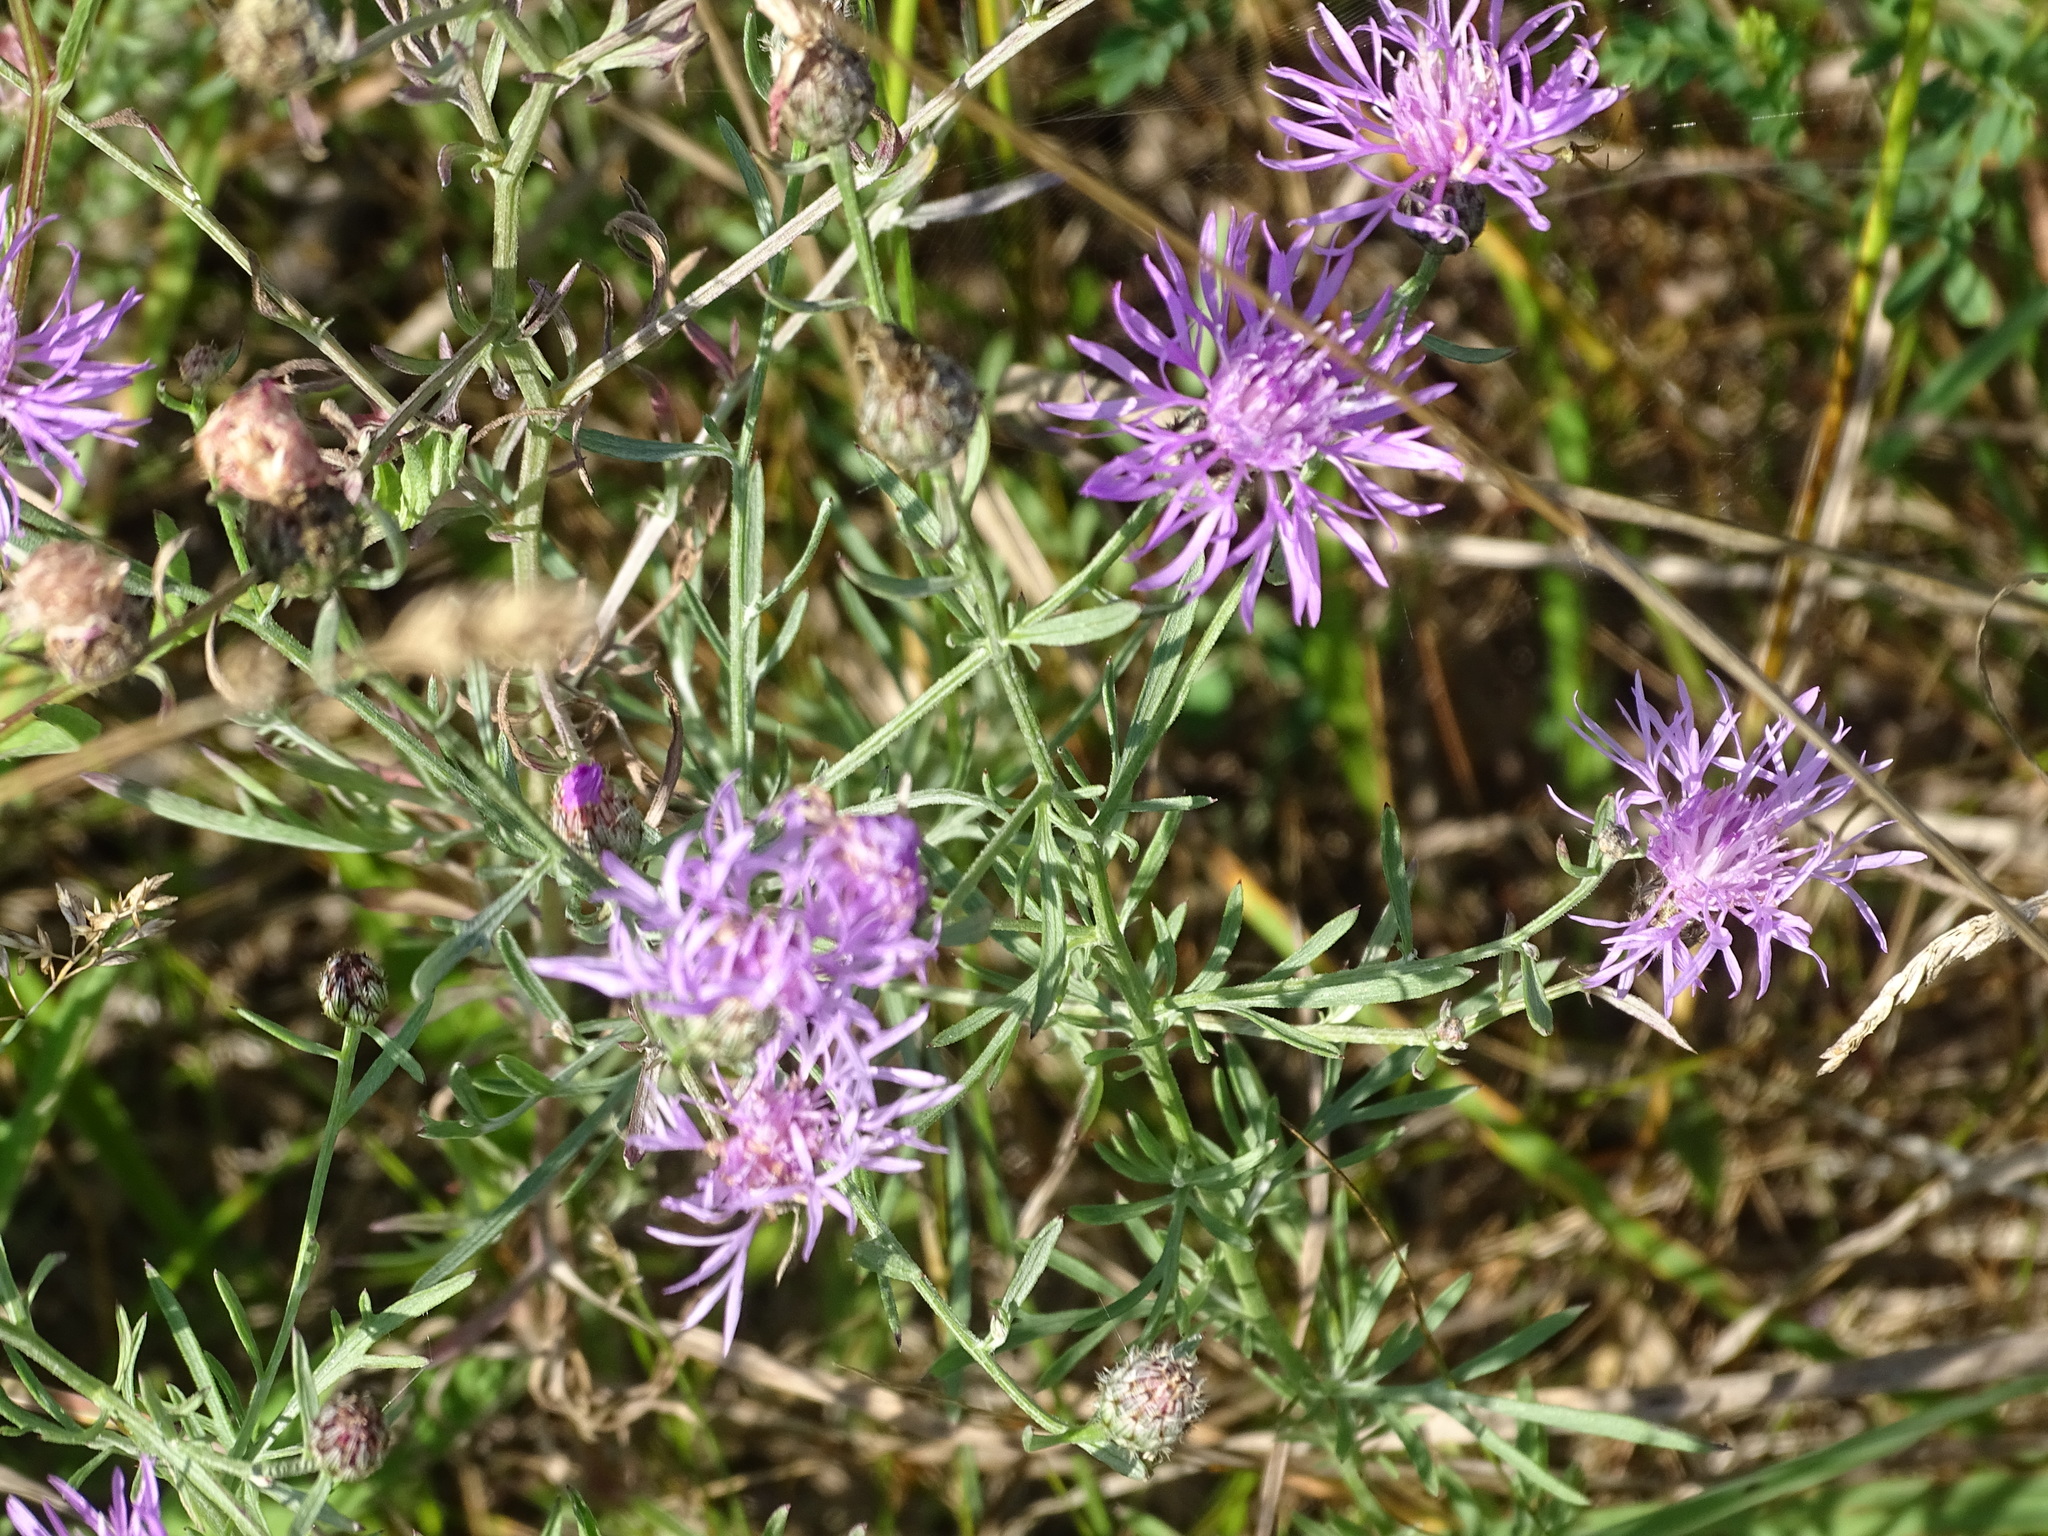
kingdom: Plantae
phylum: Tracheophyta
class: Magnoliopsida
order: Asterales
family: Asteraceae
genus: Centaurea
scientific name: Centaurea stoebe
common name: Spotted knapweed
